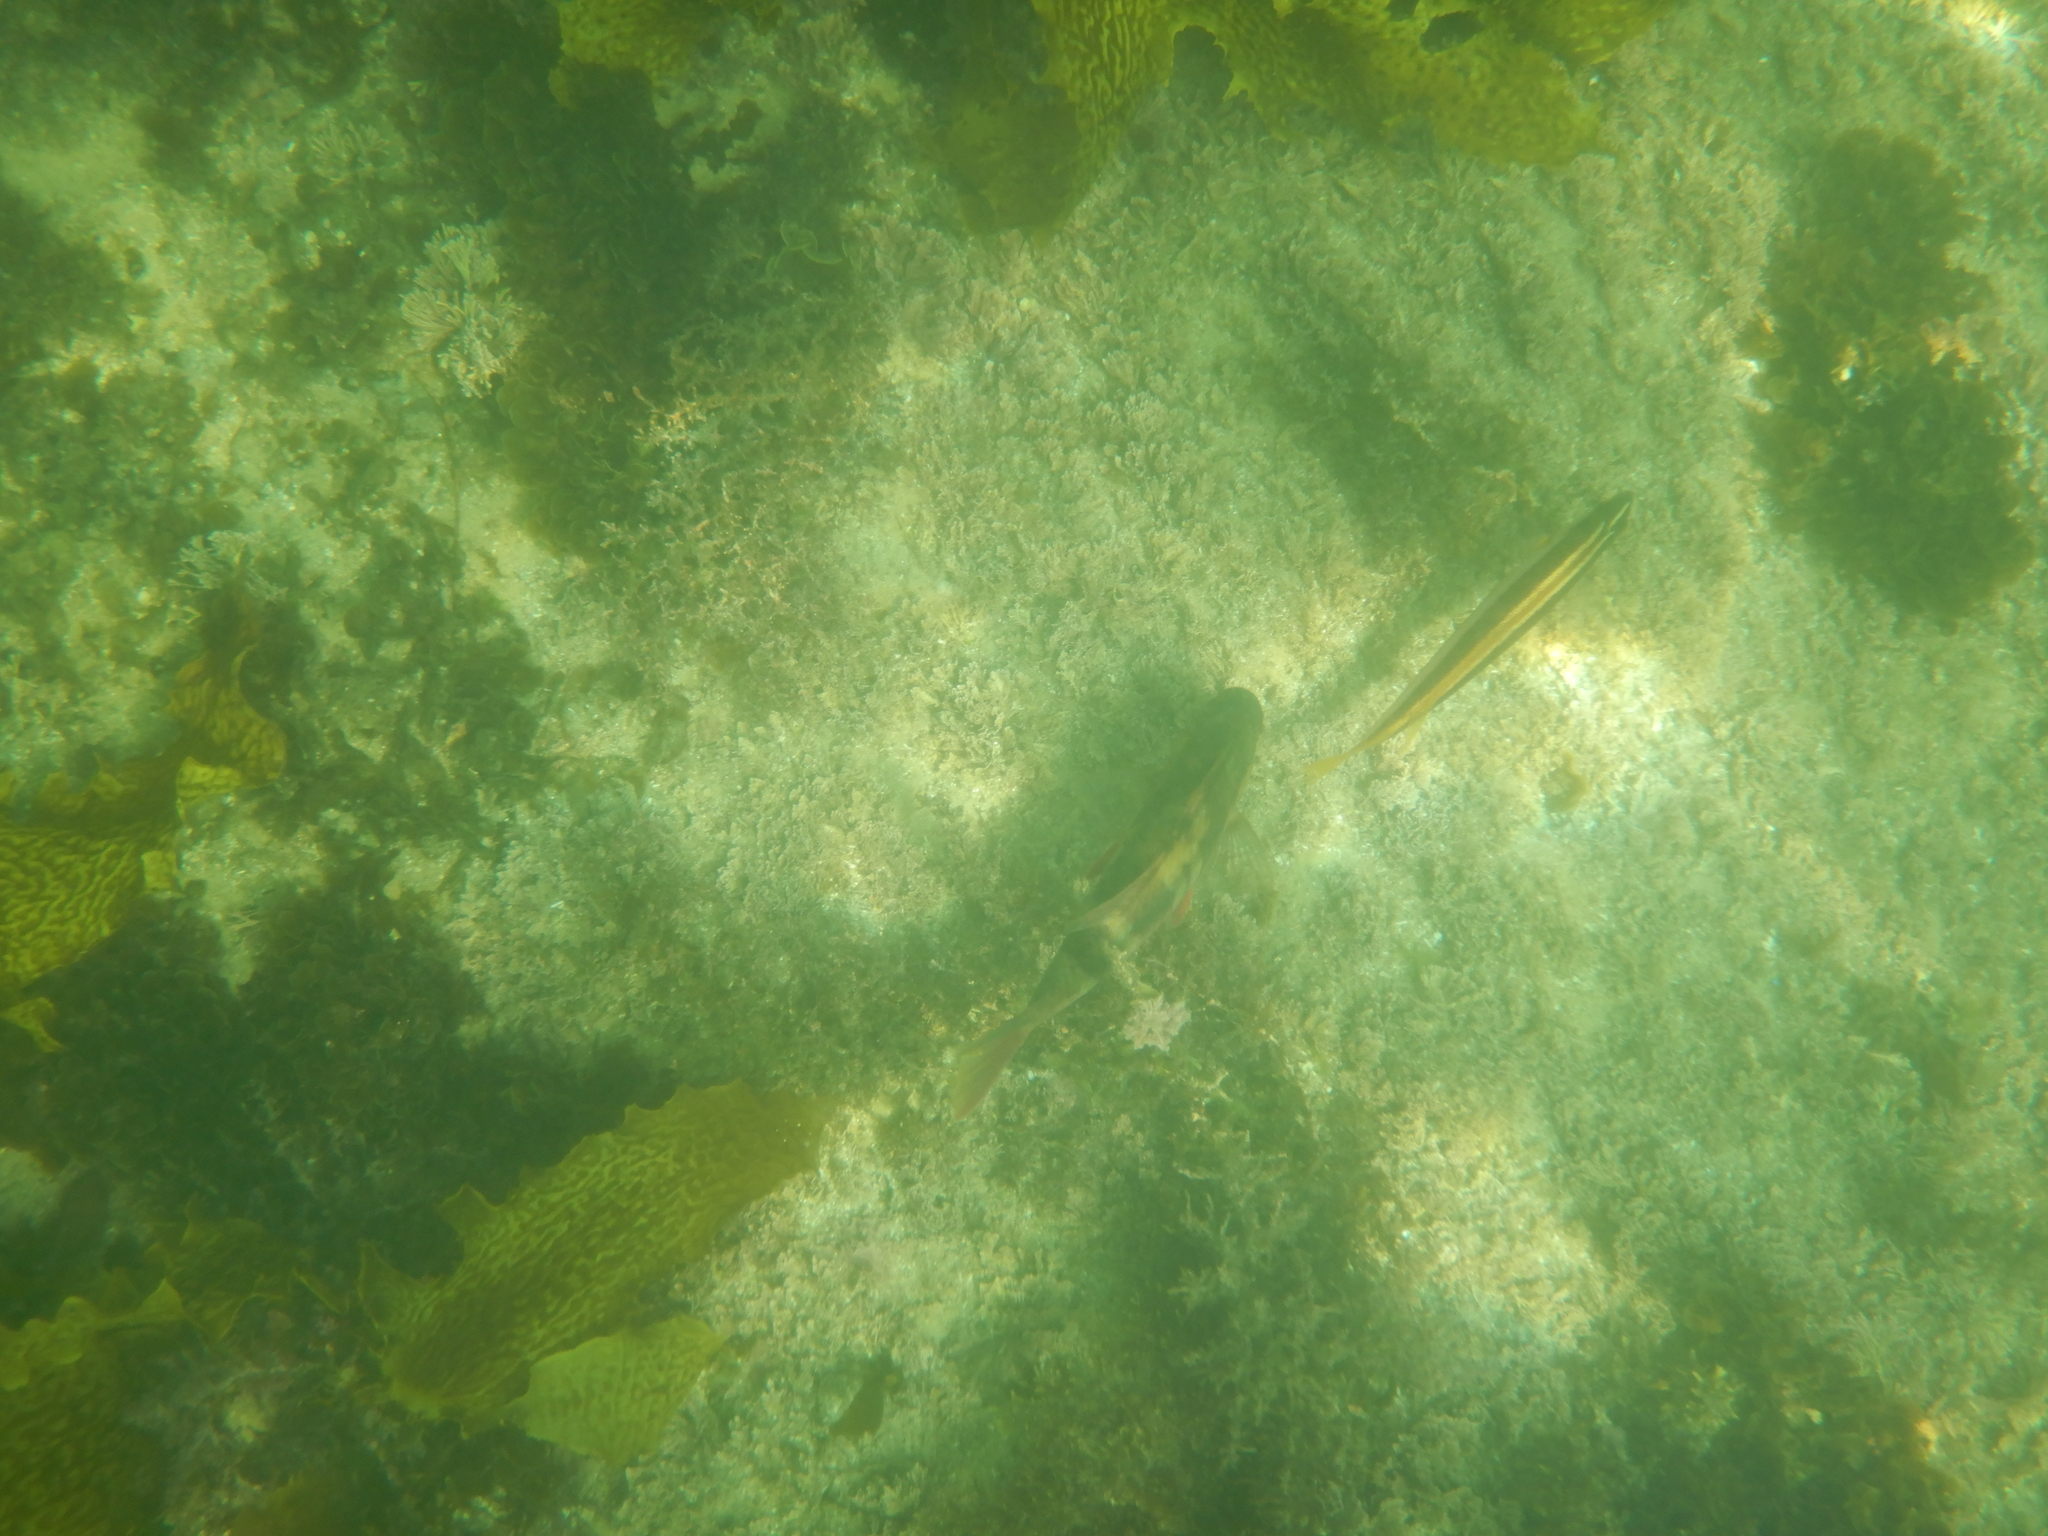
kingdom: Animalia
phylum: Chordata
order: Perciformes
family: Mullidae
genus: Upeneichthys
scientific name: Upeneichthys lineatus
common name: Red mullet
